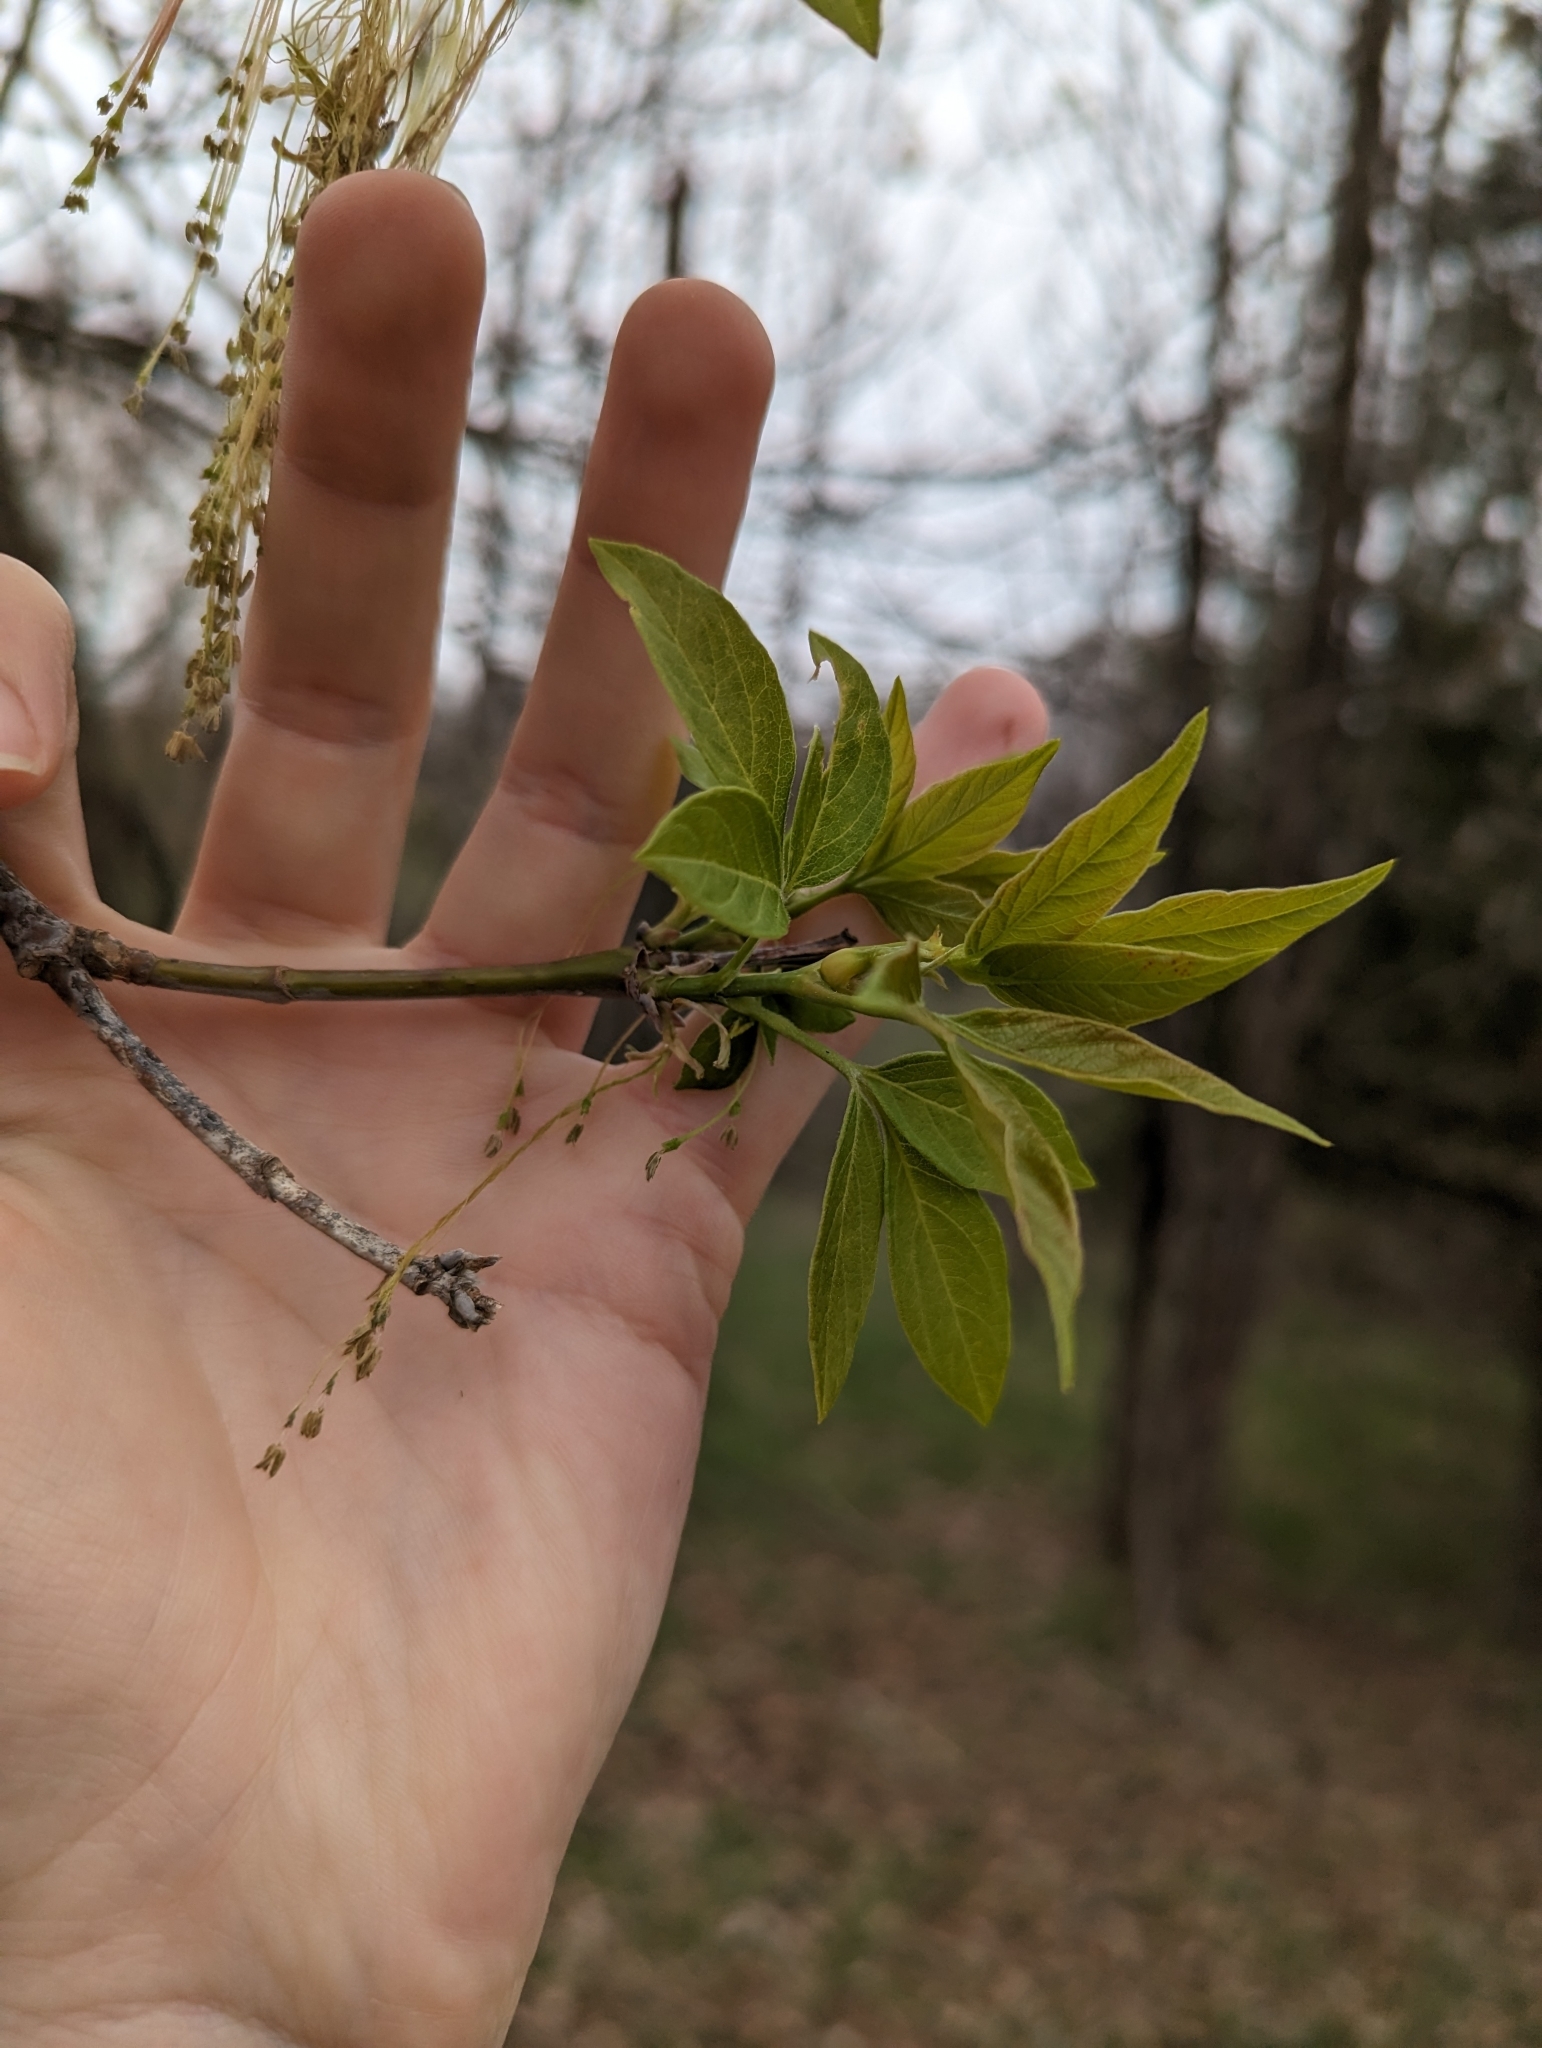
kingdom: Plantae
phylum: Tracheophyta
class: Magnoliopsida
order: Sapindales
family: Sapindaceae
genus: Acer
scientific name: Acer negundo
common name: Ashleaf maple
